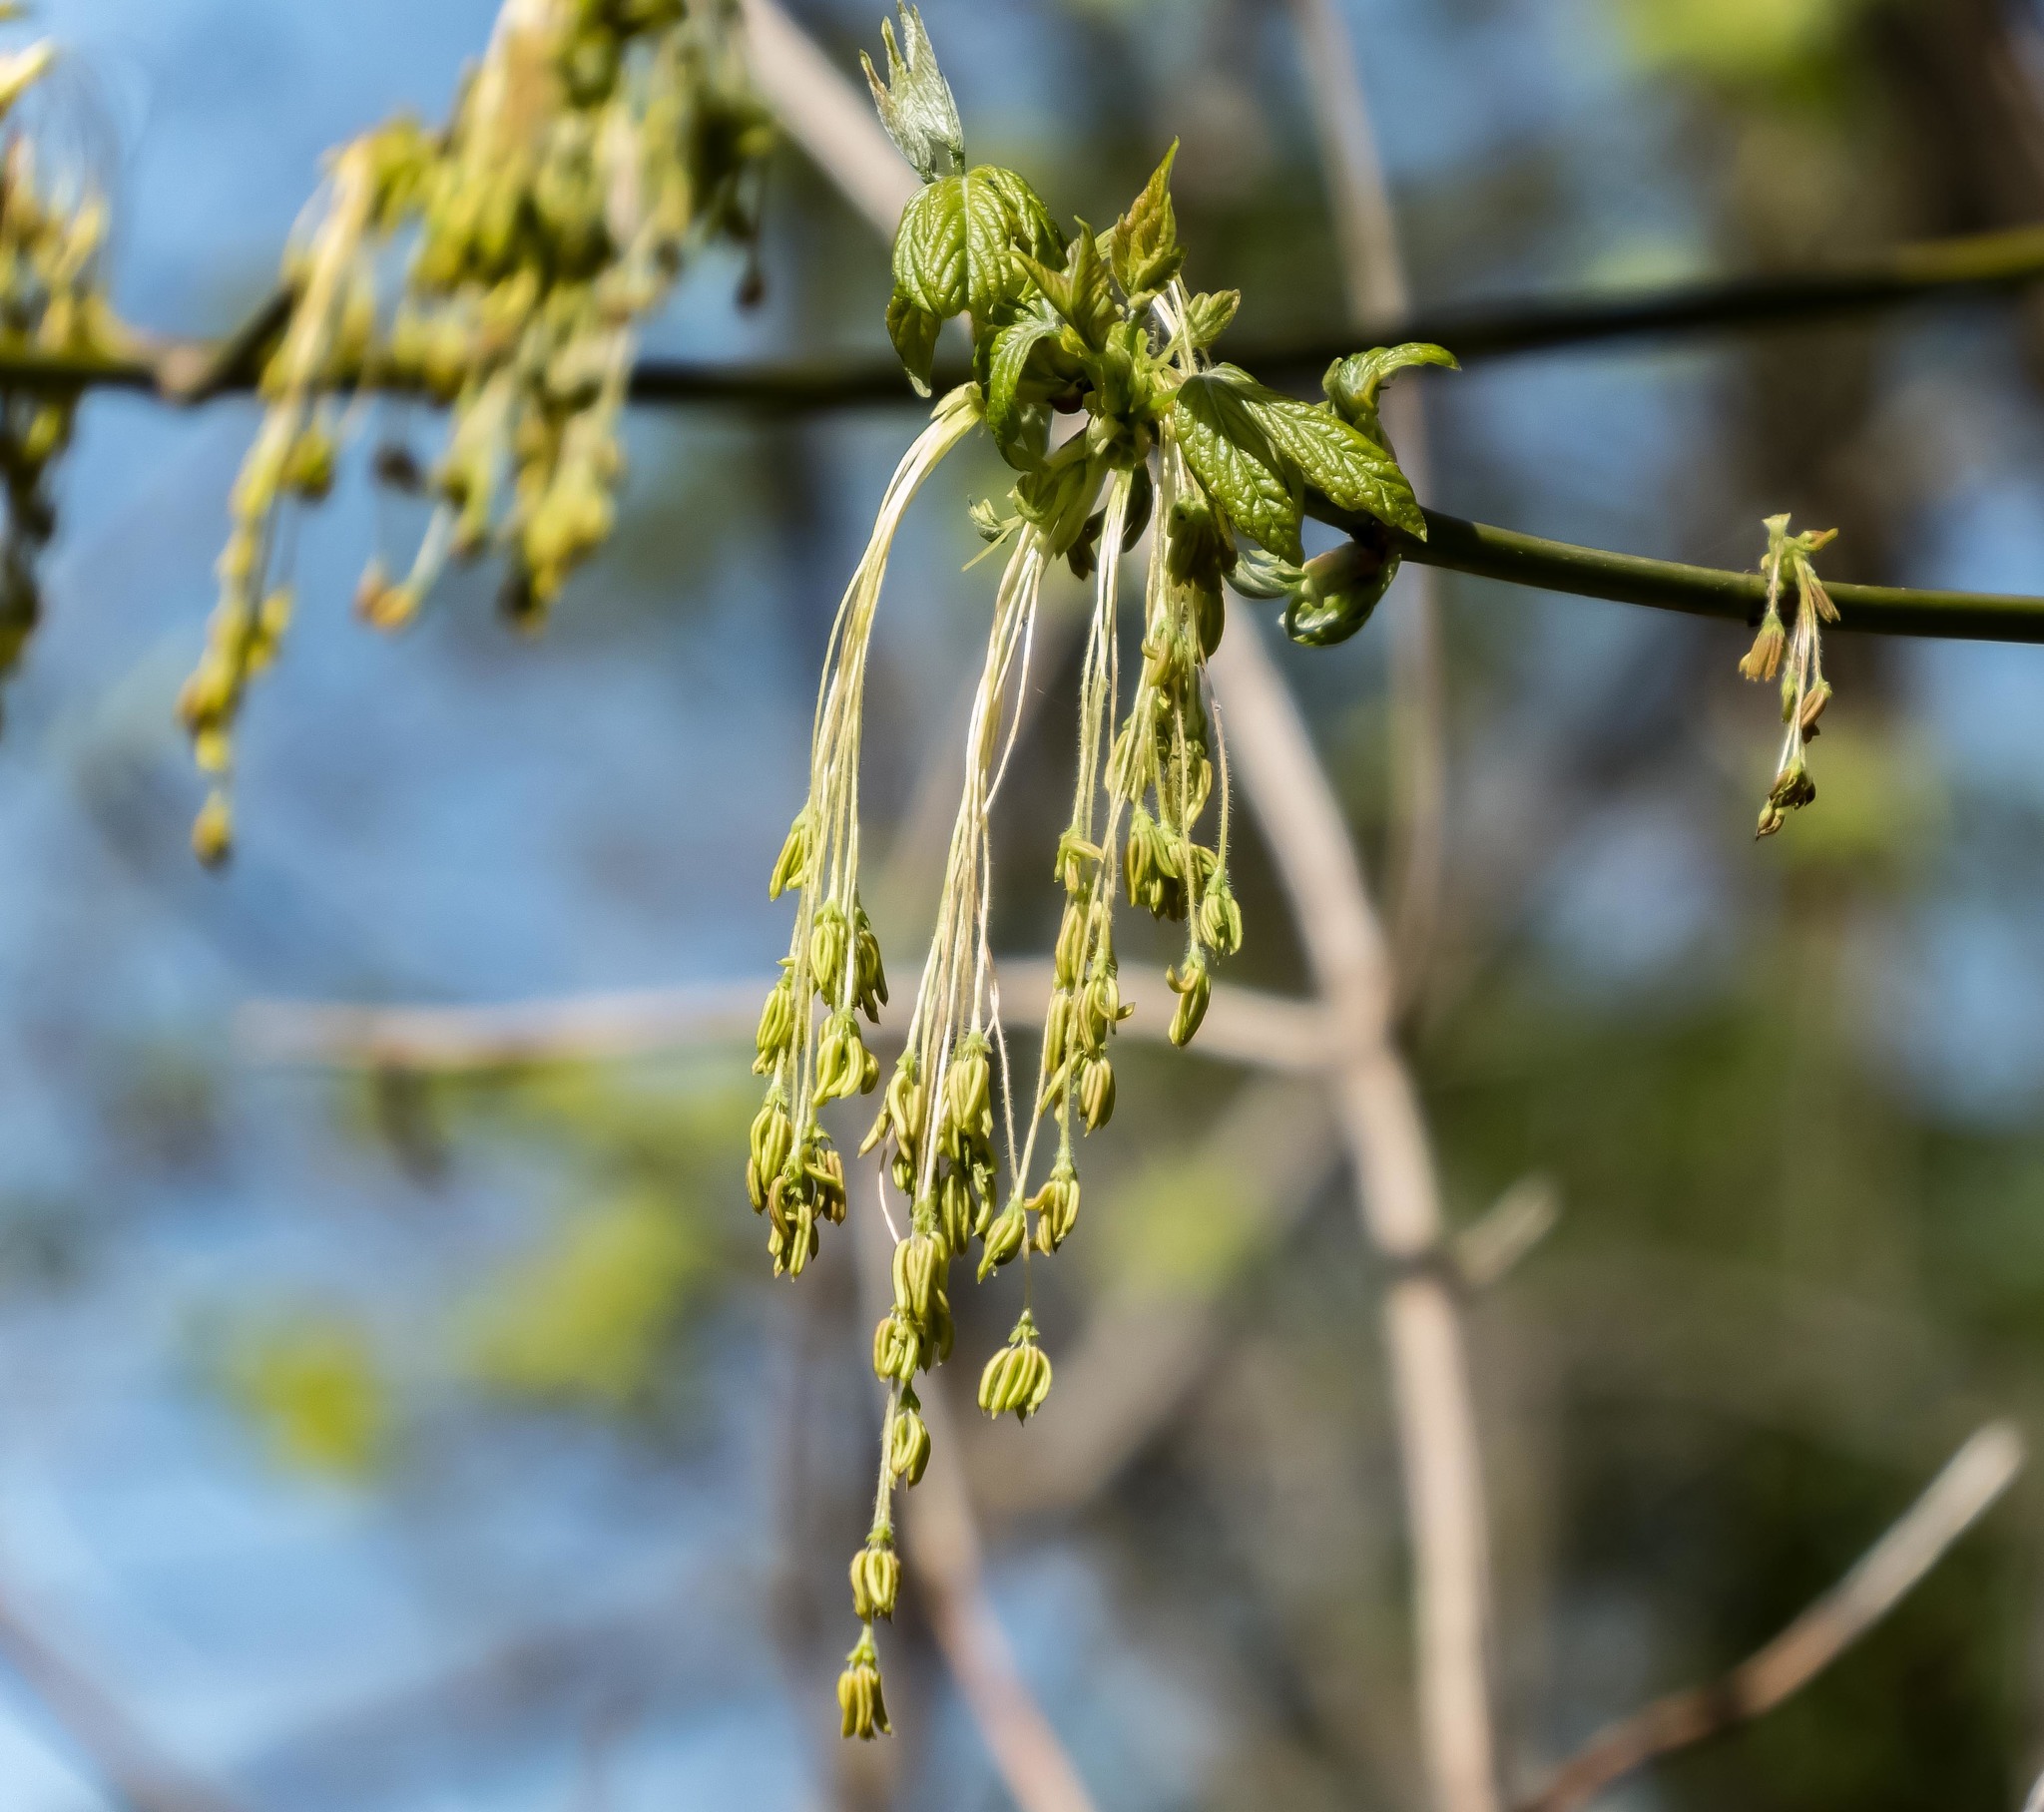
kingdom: Plantae
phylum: Tracheophyta
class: Magnoliopsida
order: Sapindales
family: Sapindaceae
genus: Acer
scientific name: Acer negundo
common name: Ashleaf maple
